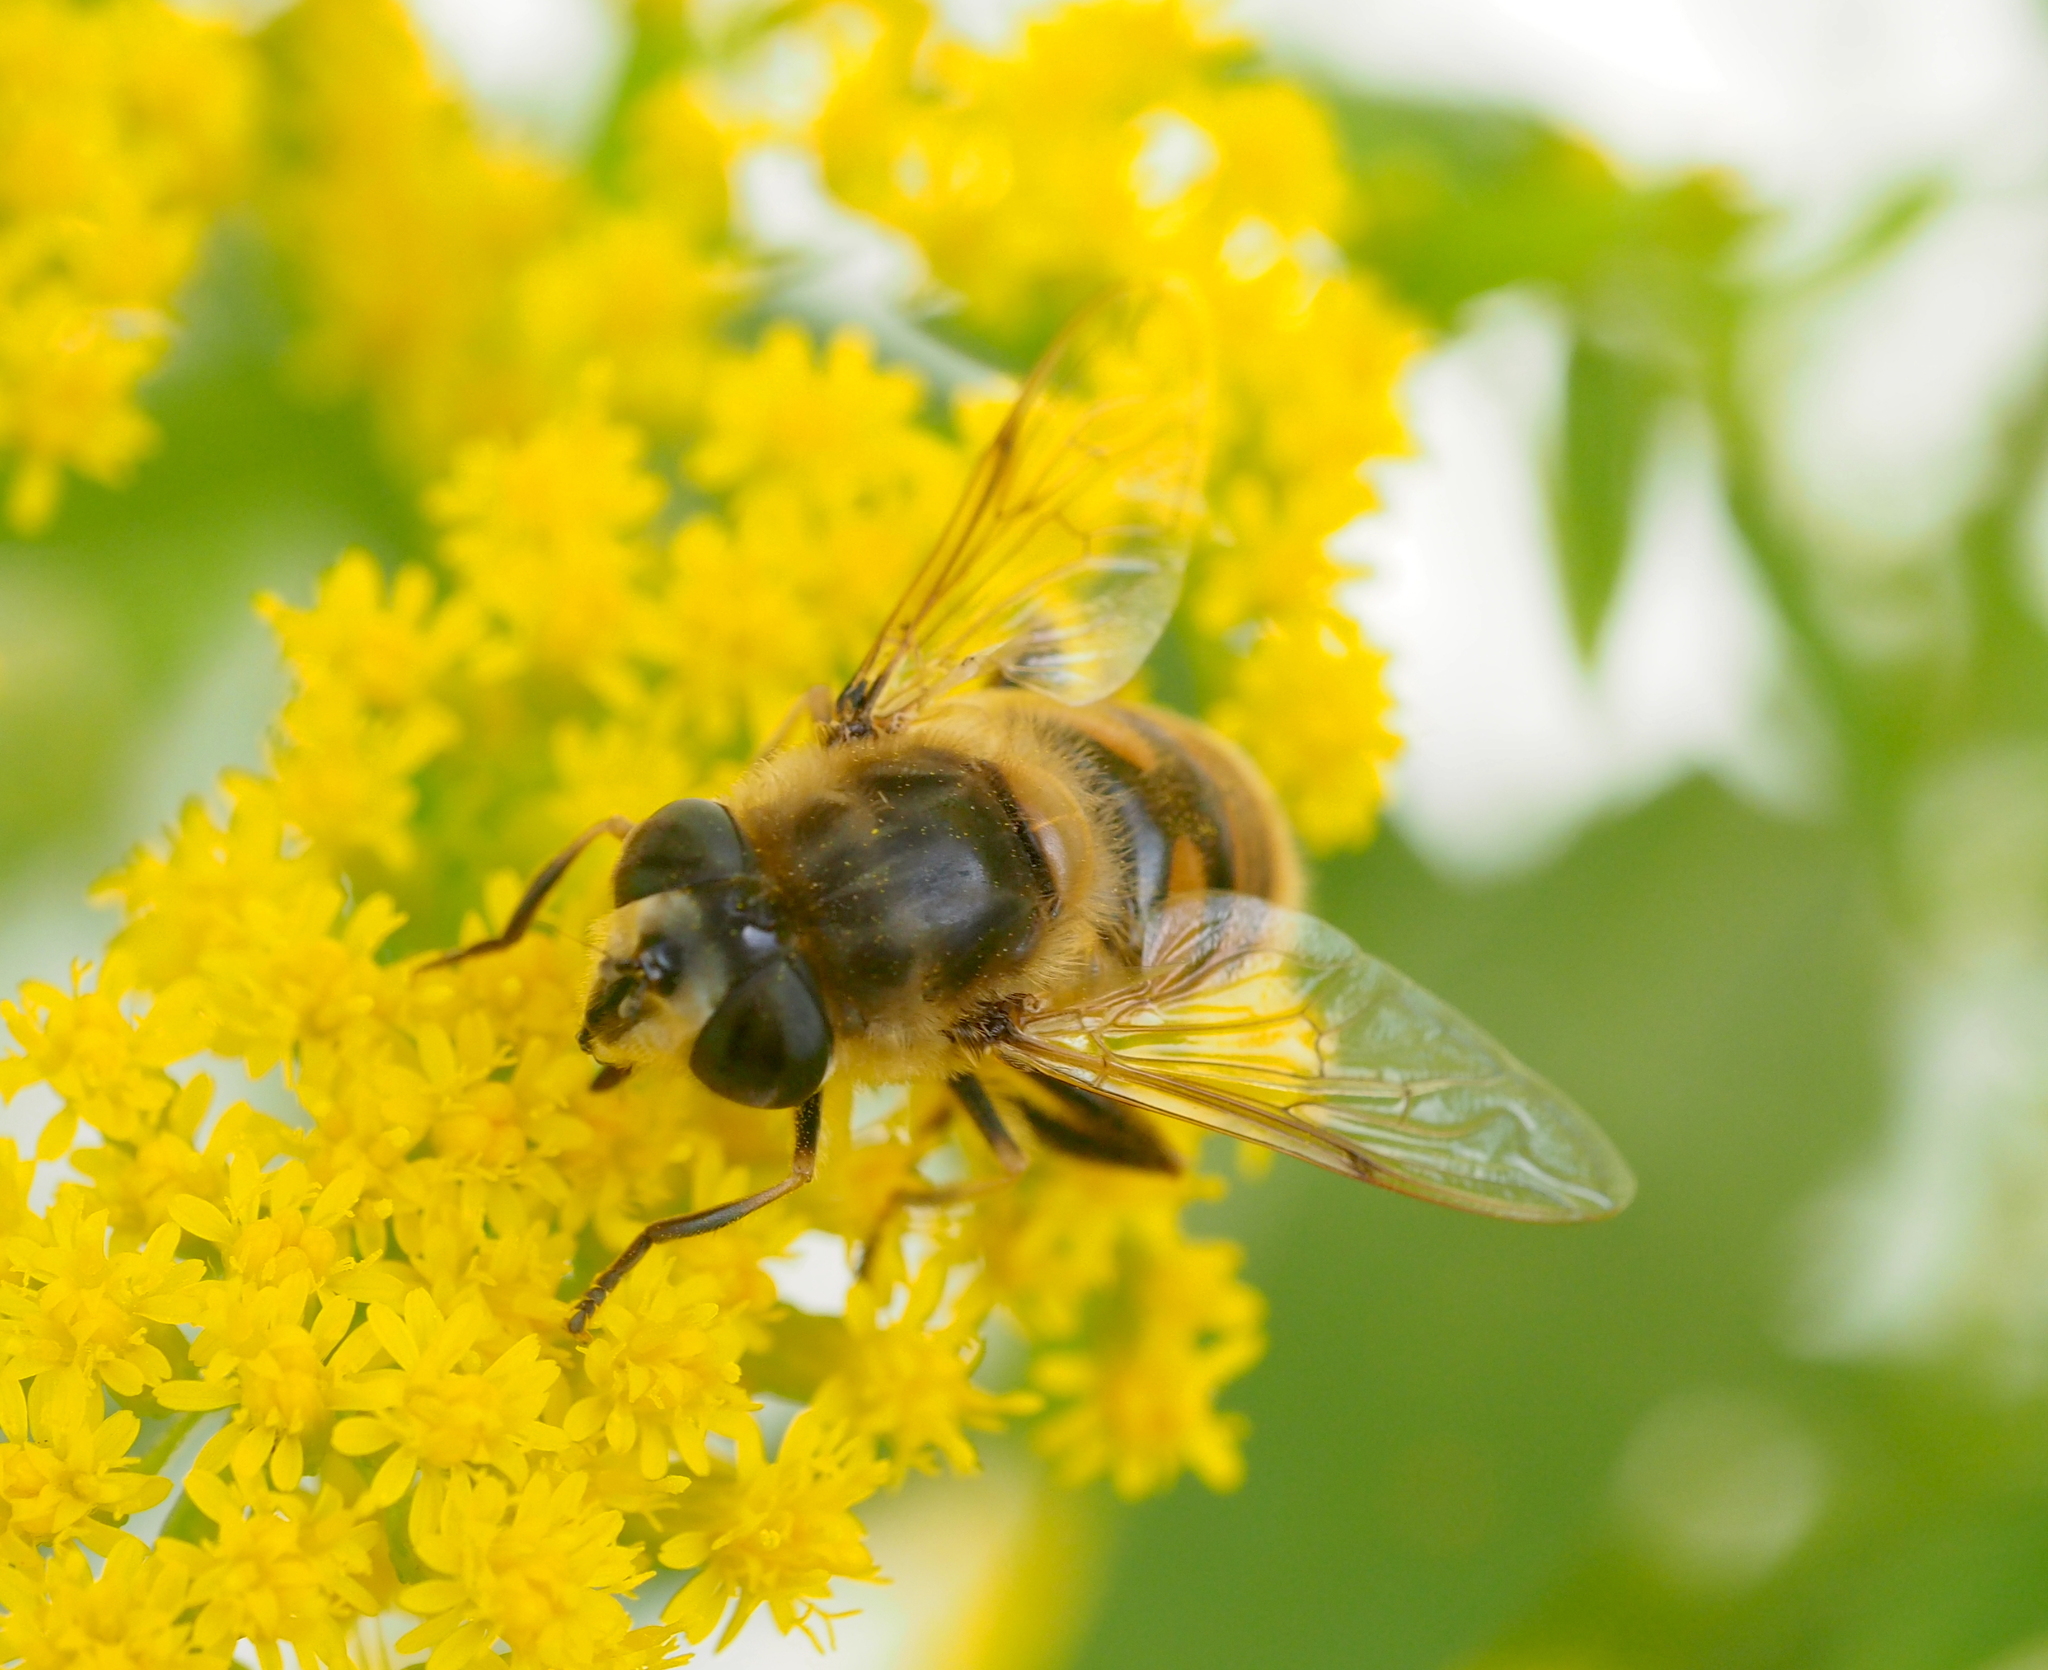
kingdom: Animalia
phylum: Arthropoda
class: Insecta
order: Diptera
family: Syrphidae
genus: Eristalis
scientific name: Eristalis tenax
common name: Drone fly
